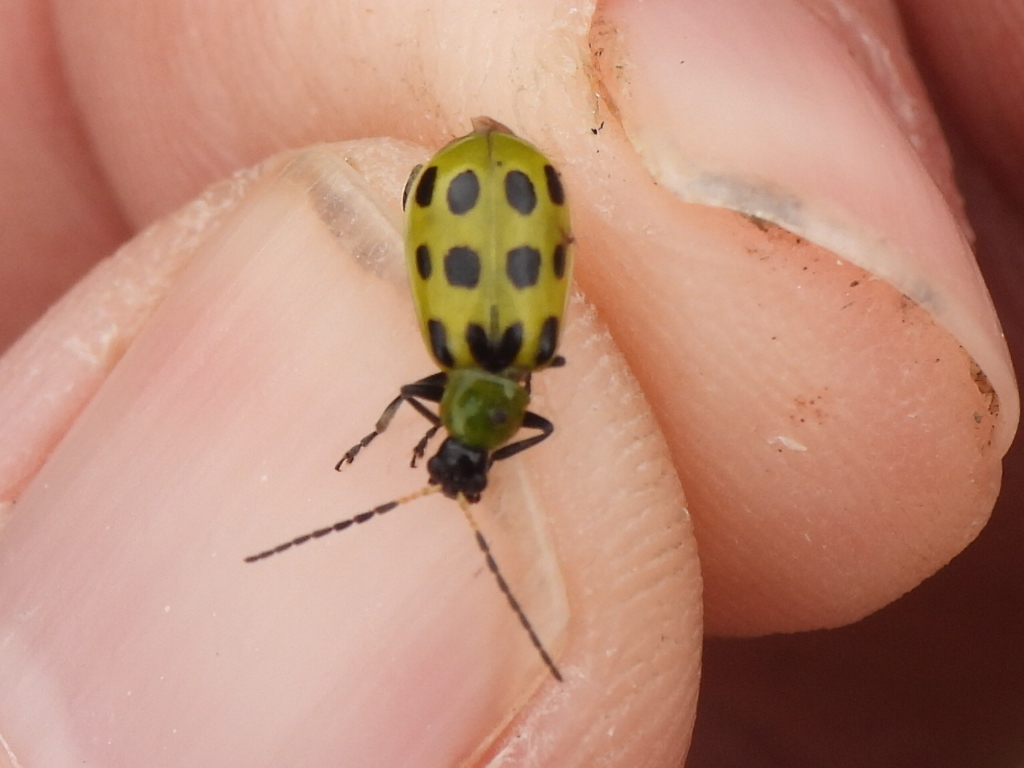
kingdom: Animalia
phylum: Arthropoda
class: Insecta
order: Coleoptera
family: Chrysomelidae
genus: Diabrotica
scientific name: Diabrotica undecimpunctata
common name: Spotted cucumber beetle
